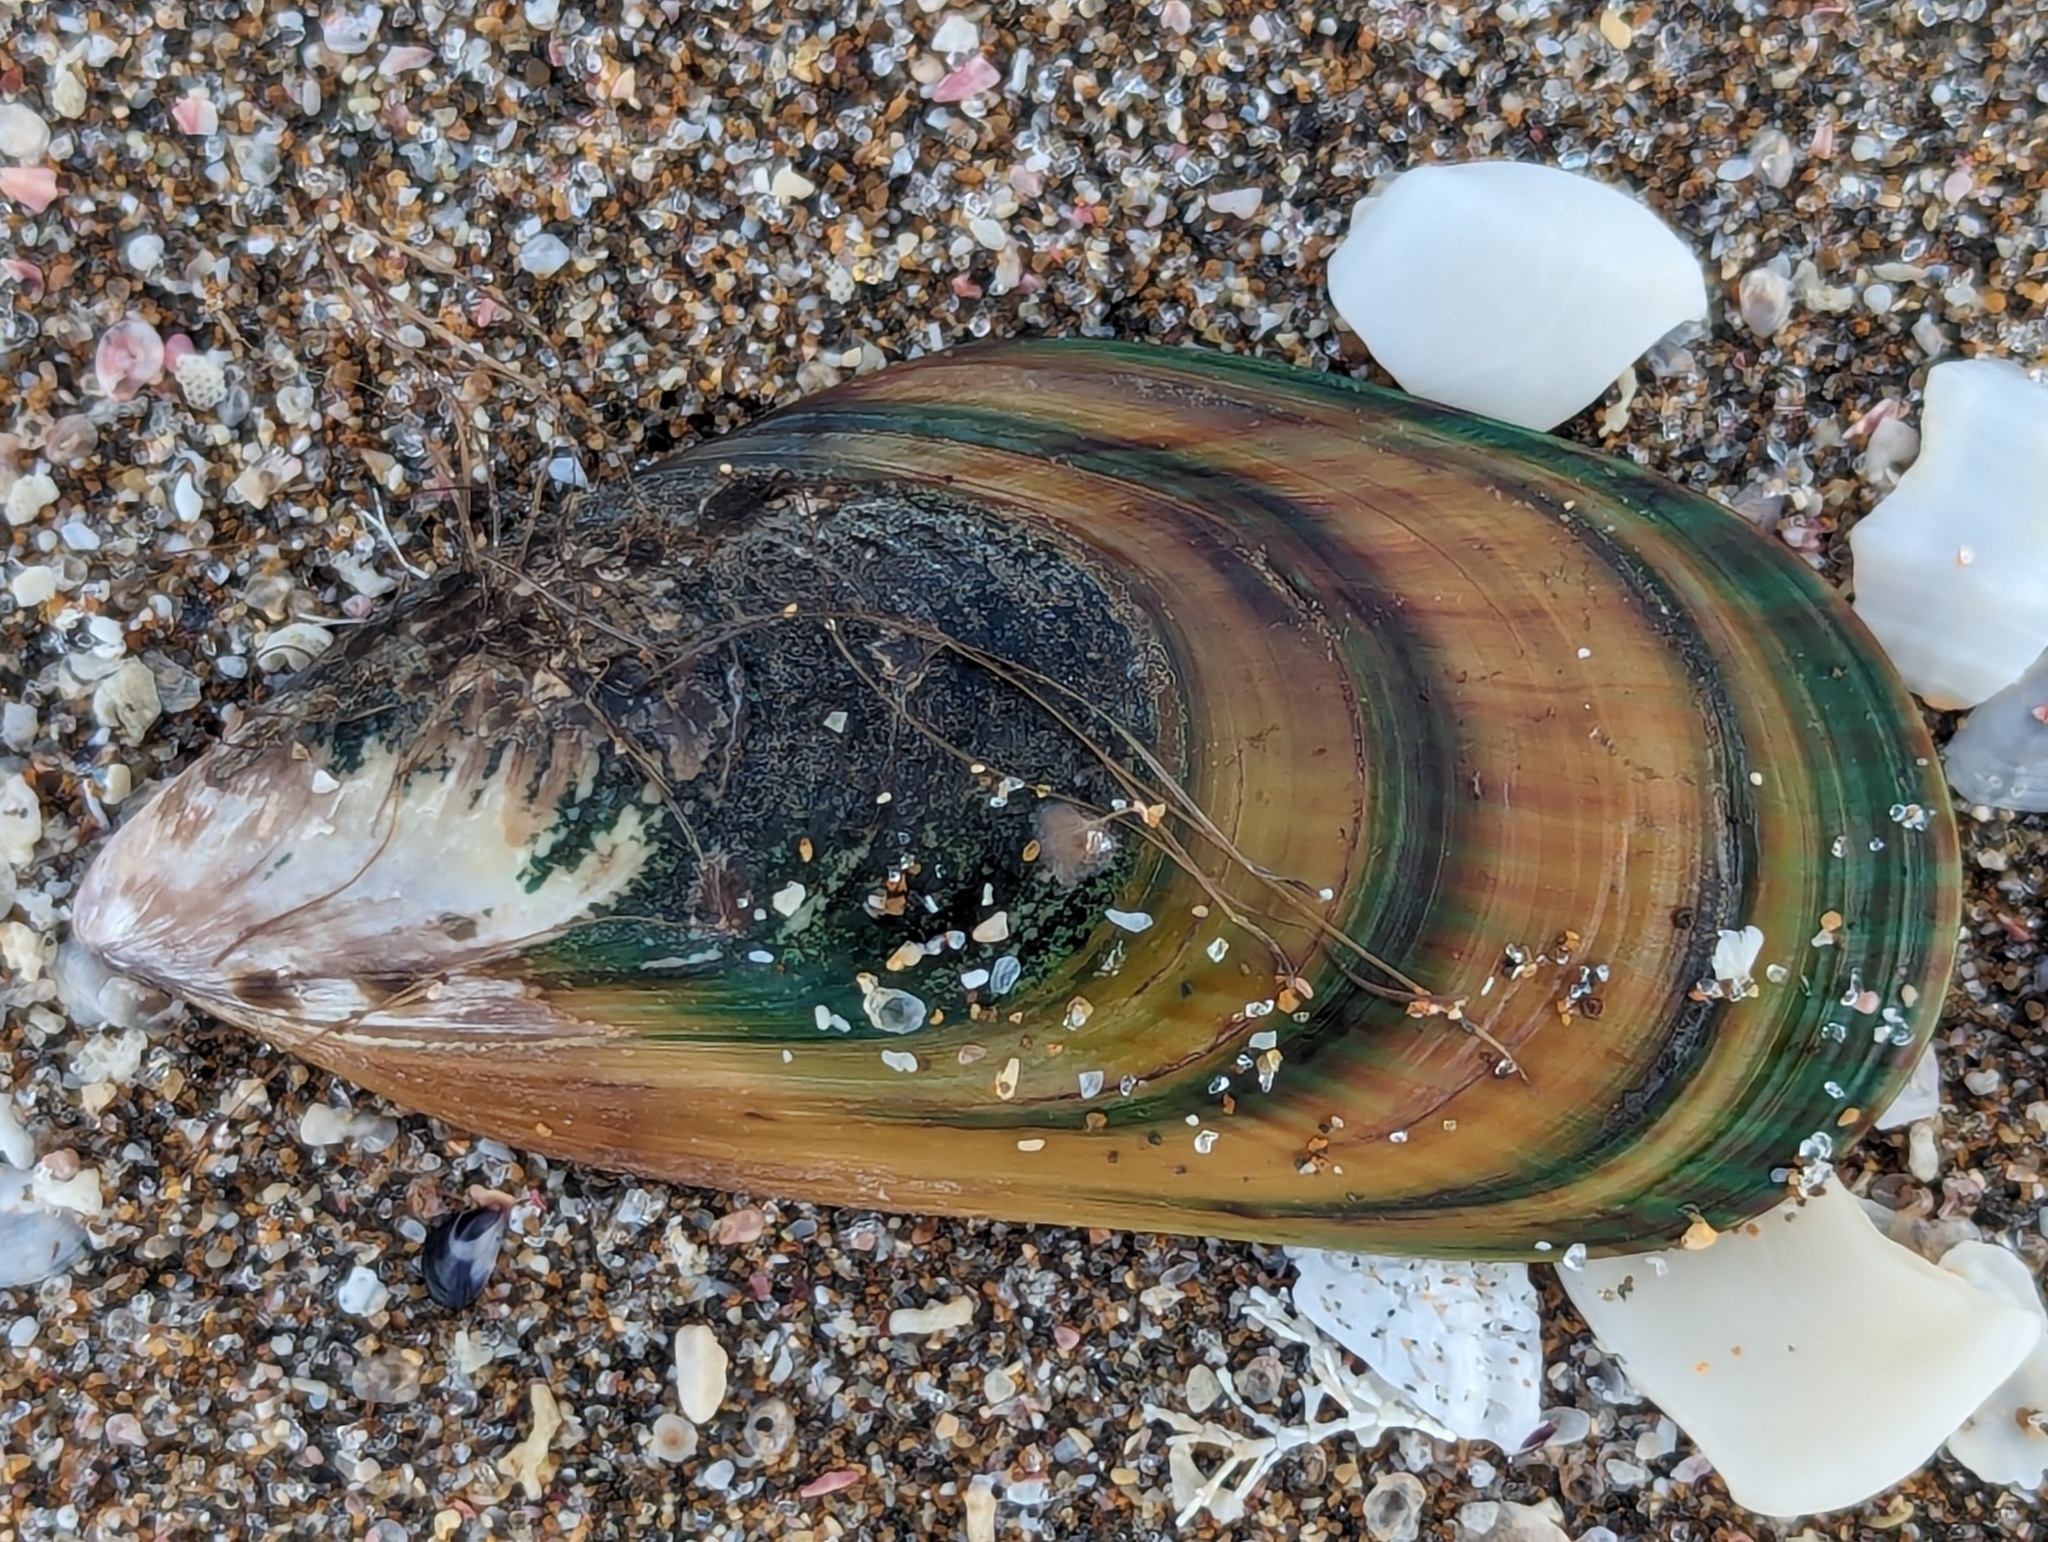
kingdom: Animalia
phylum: Mollusca
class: Bivalvia
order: Mytilida
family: Mytilidae
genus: Perna
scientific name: Perna canaliculus
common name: New zealand greenshelltm
